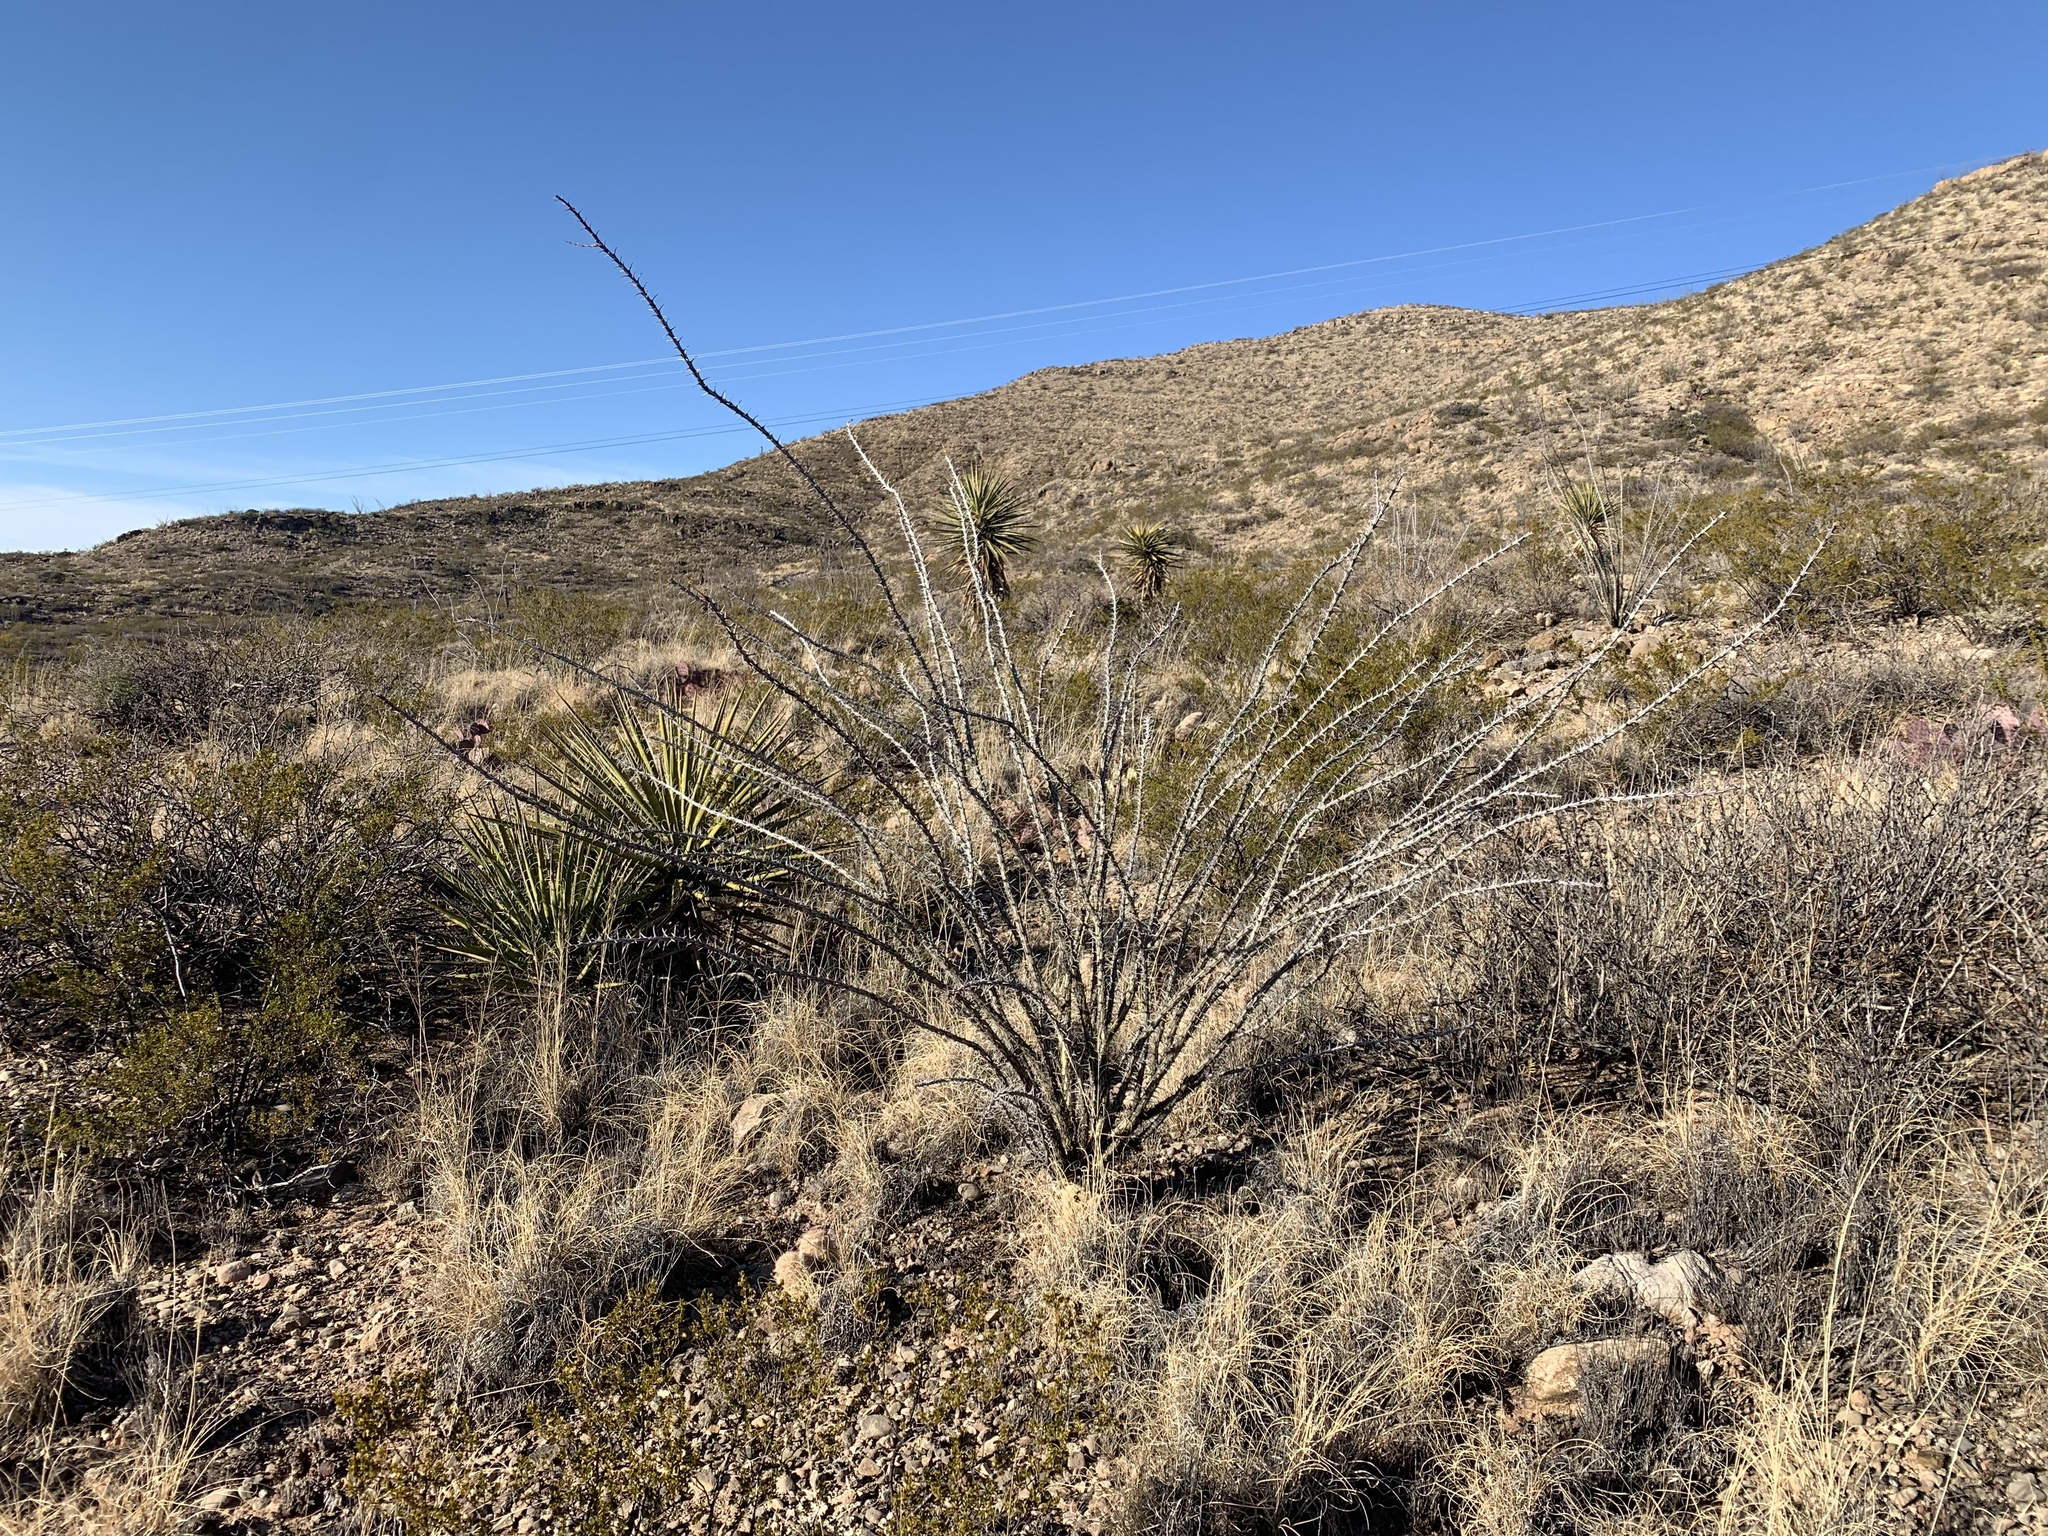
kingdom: Plantae
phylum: Tracheophyta
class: Magnoliopsida
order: Ericales
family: Fouquieriaceae
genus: Fouquieria
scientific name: Fouquieria splendens
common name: Vine-cactus
